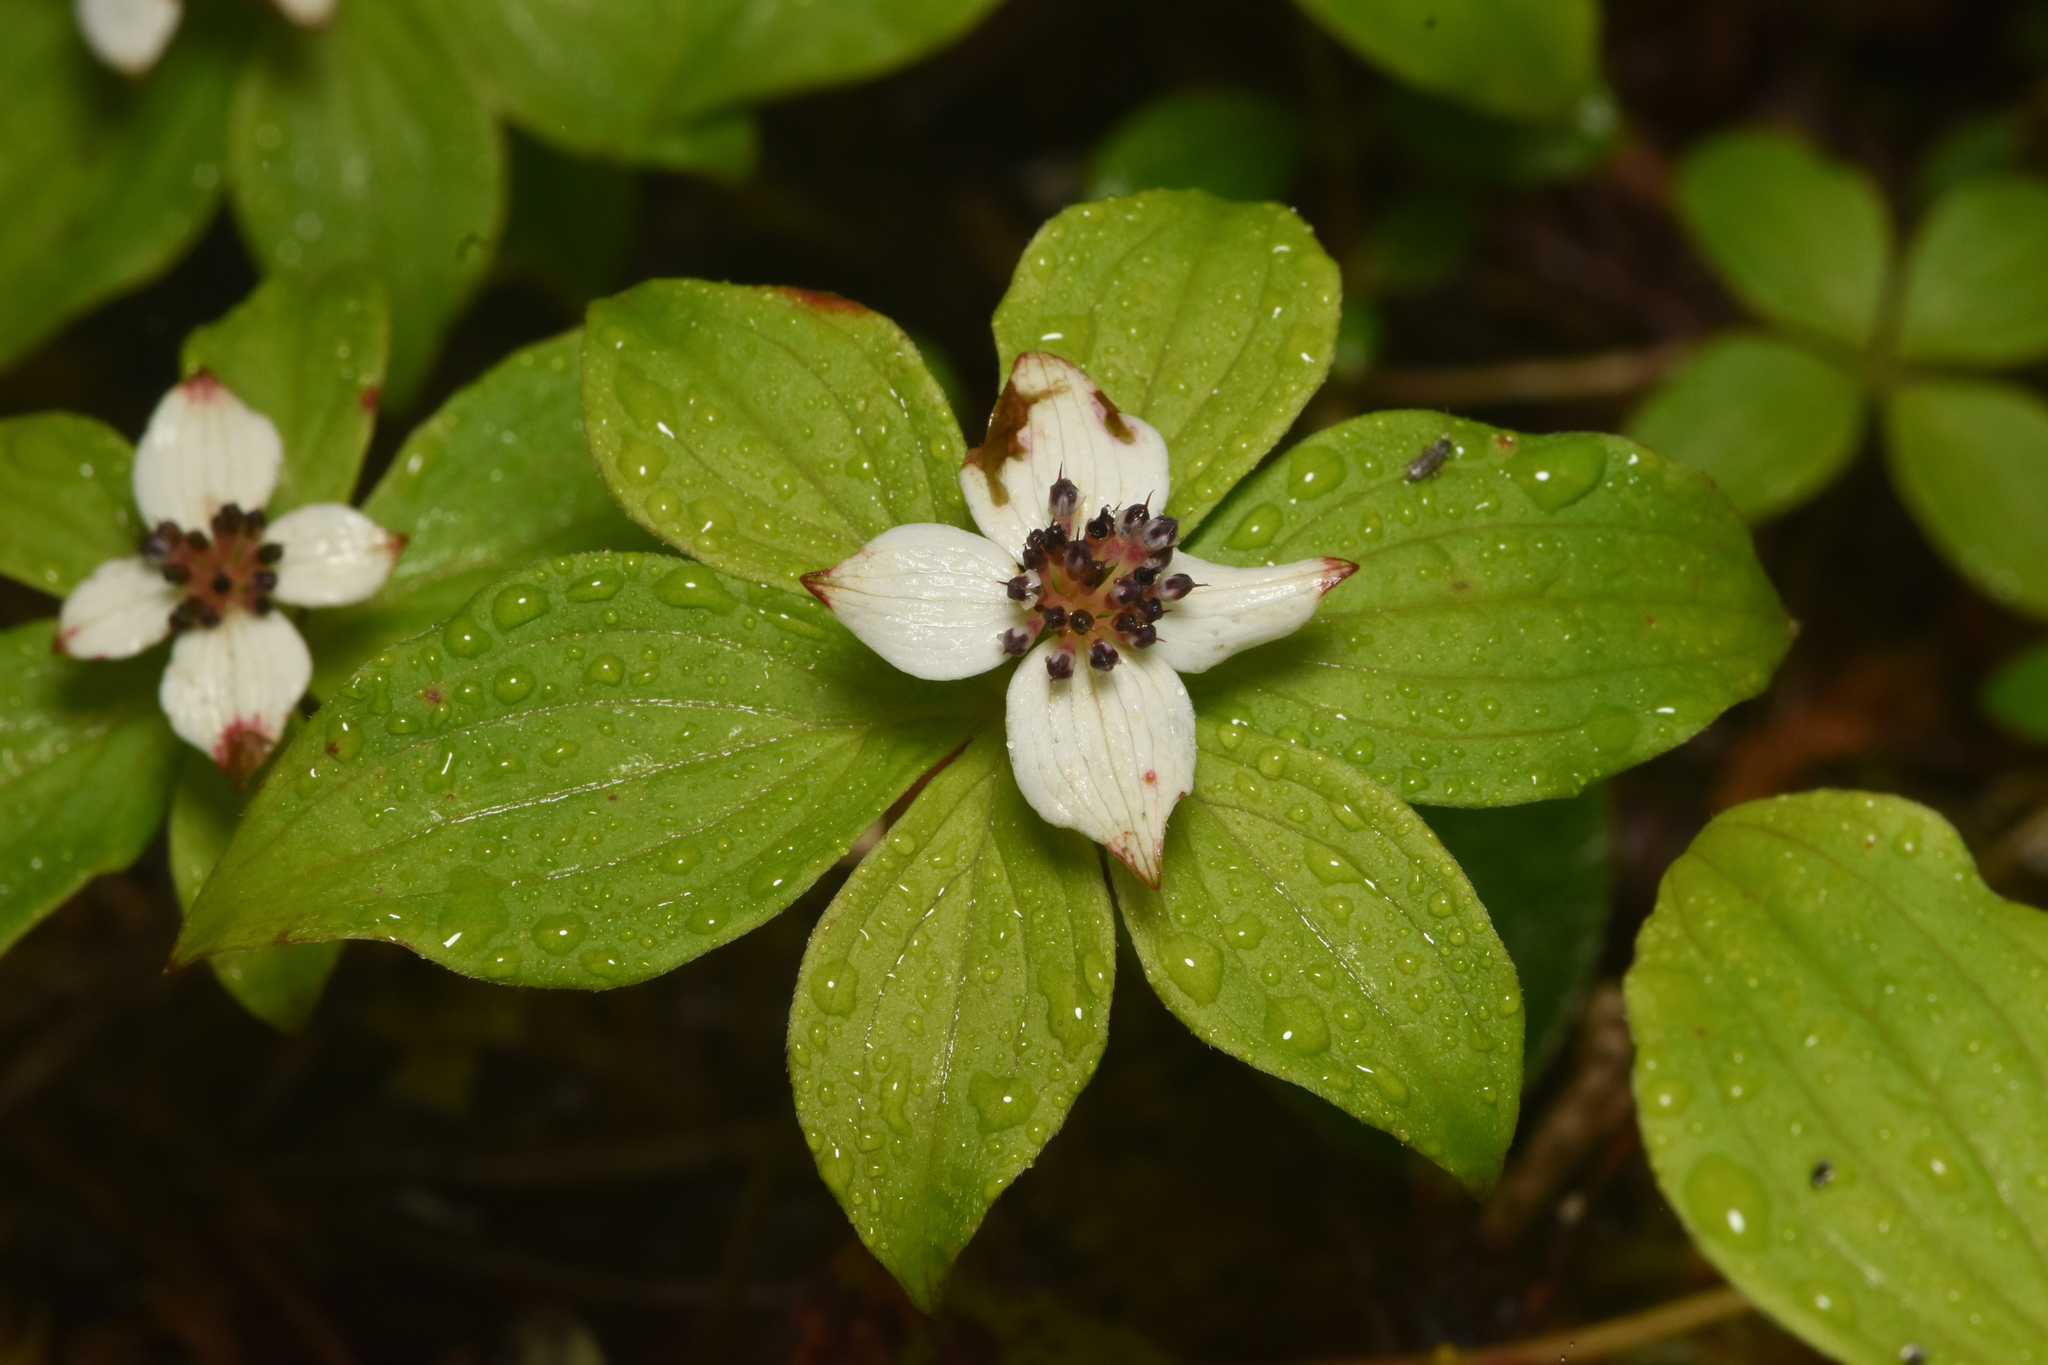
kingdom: Plantae
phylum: Tracheophyta
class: Magnoliopsida
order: Cornales
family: Cornaceae
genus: Cornus
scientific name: Cornus unalaschkensis
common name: Alaska bunchberry
